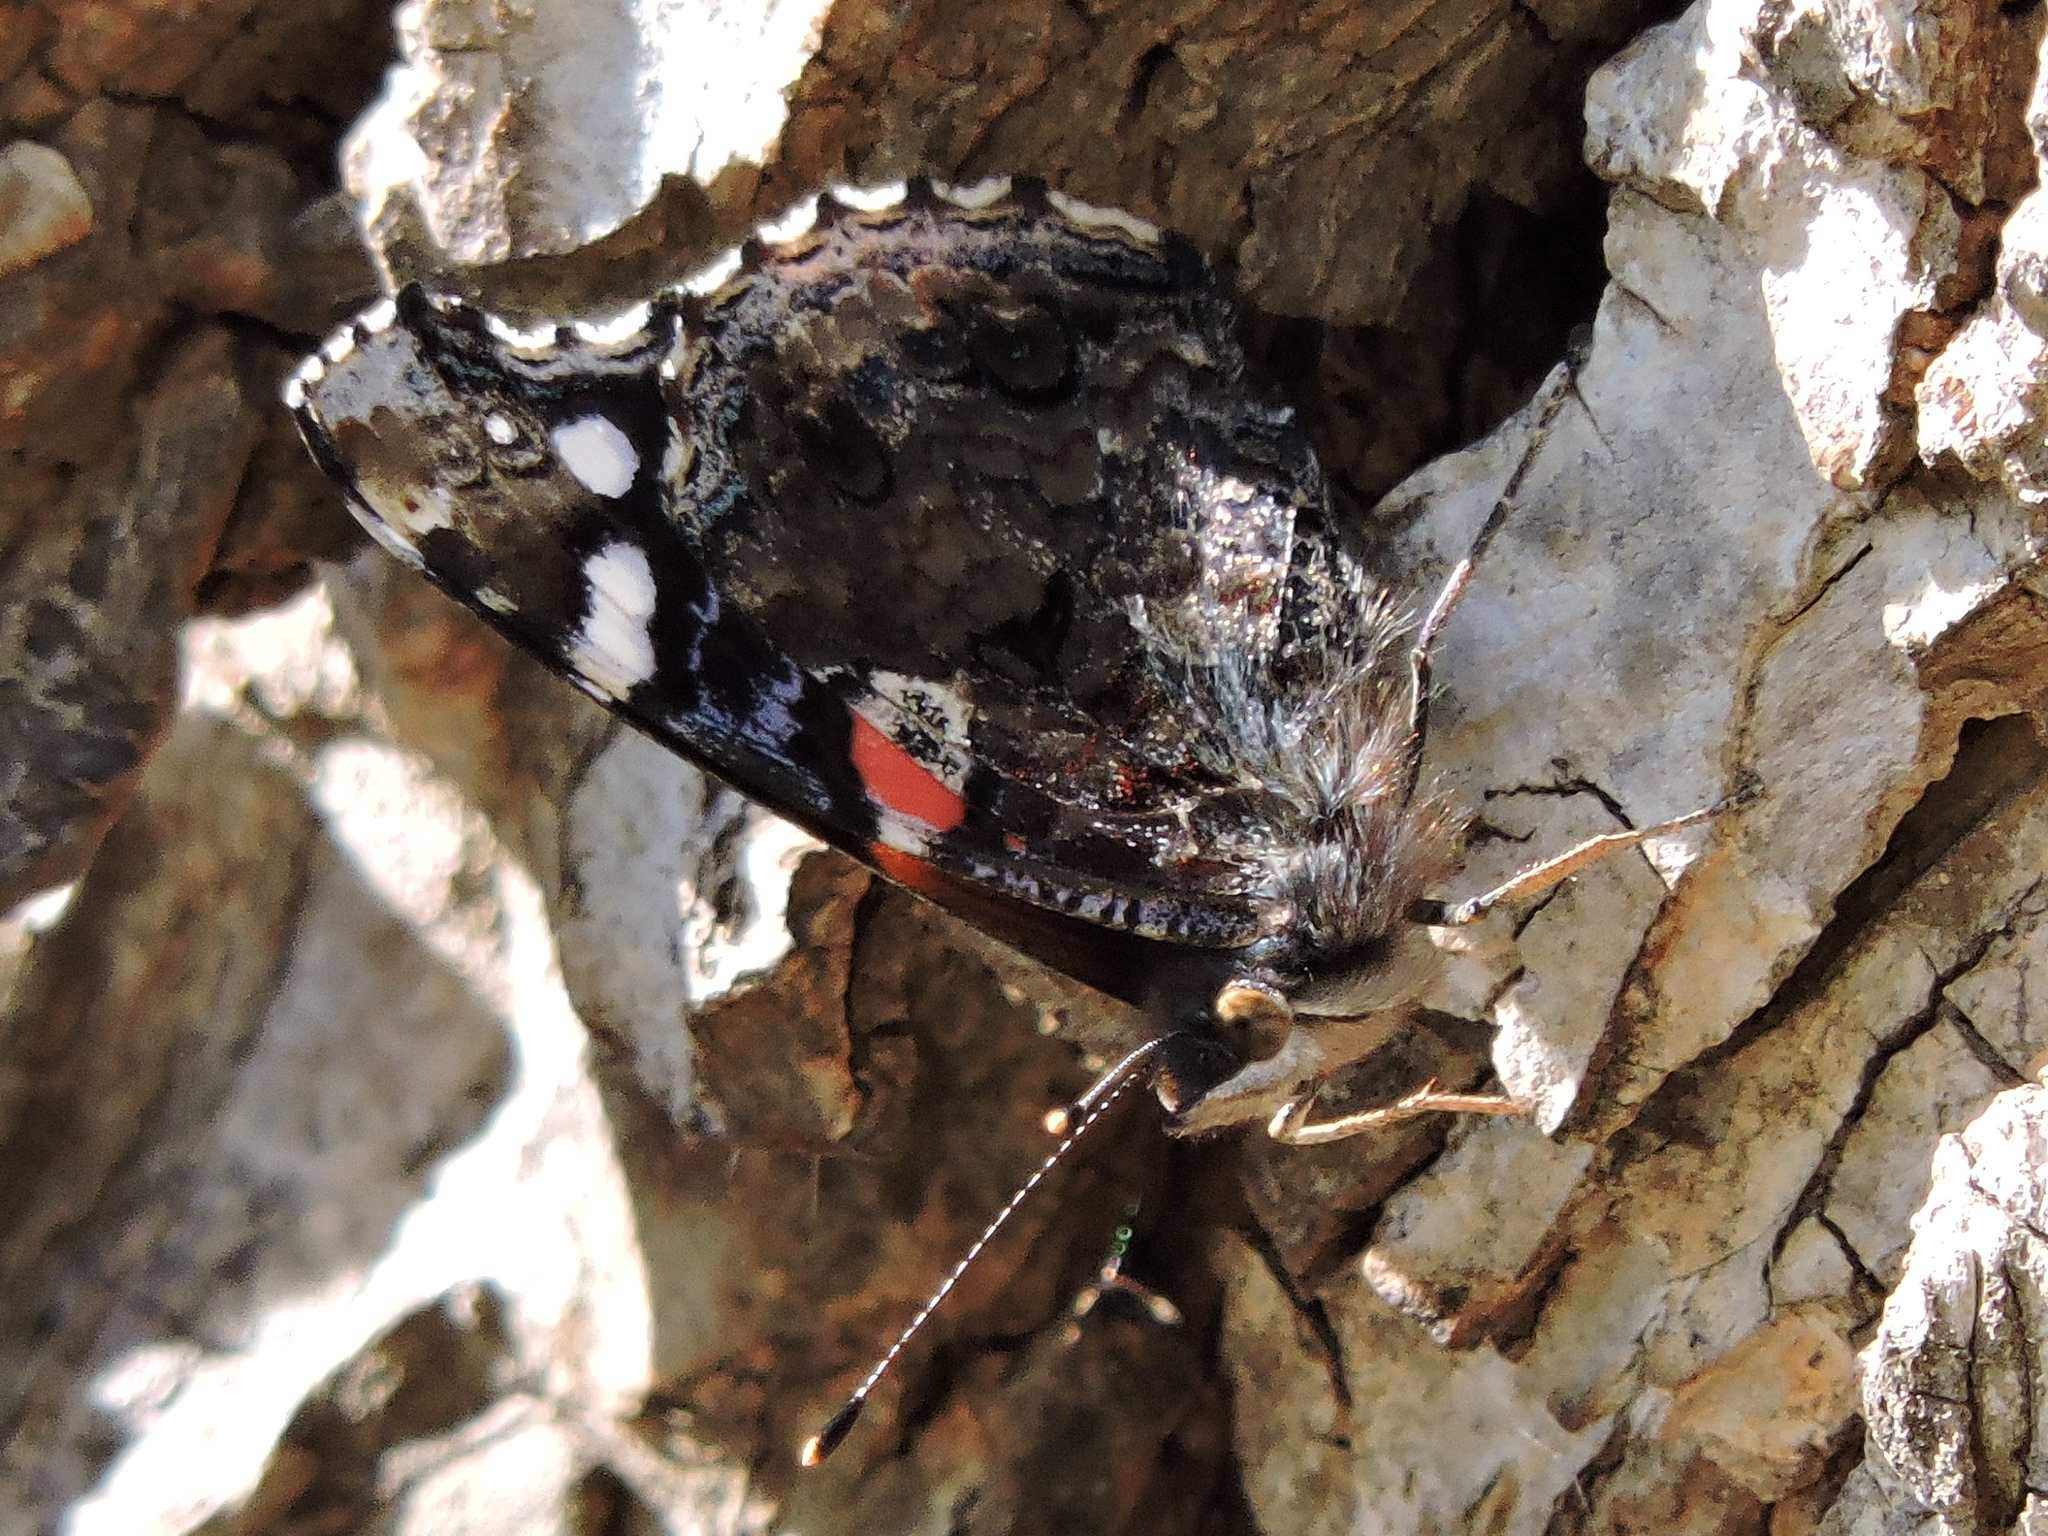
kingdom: Animalia
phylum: Arthropoda
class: Insecta
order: Lepidoptera
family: Nymphalidae
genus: Vanessa
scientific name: Vanessa atalanta
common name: Red admiral
